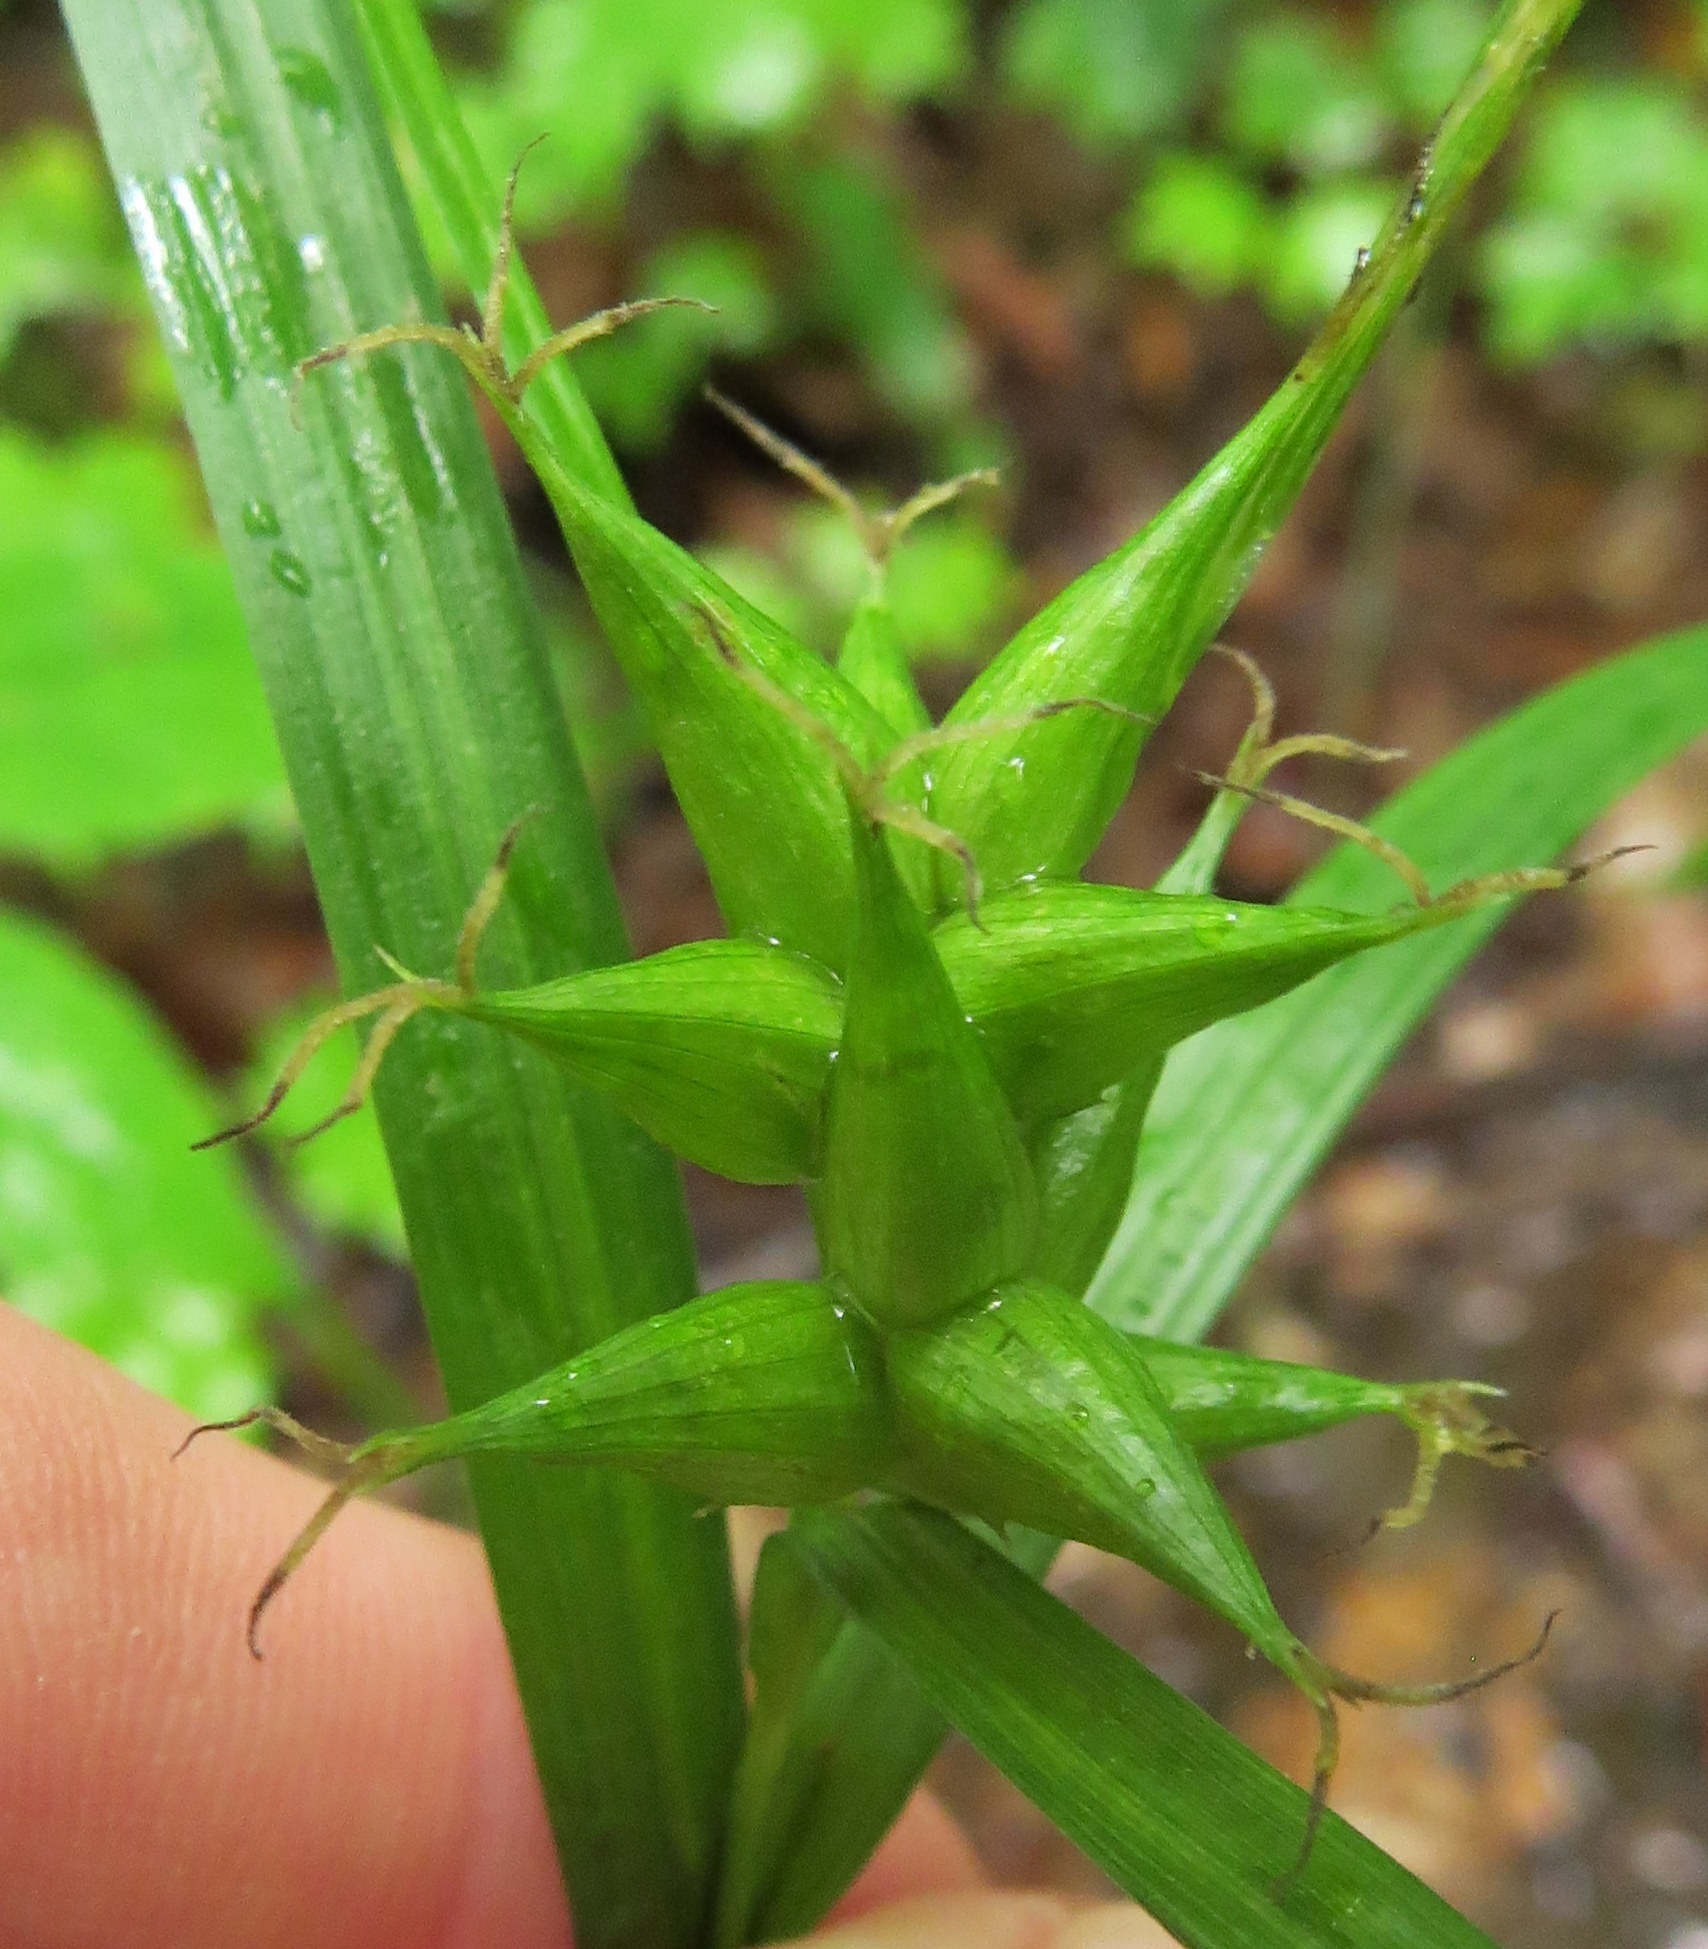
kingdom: Plantae
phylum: Tracheophyta
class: Liliopsida
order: Poales
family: Cyperaceae
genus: Carex
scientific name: Carex intumescens
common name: Greater bladder sedge
